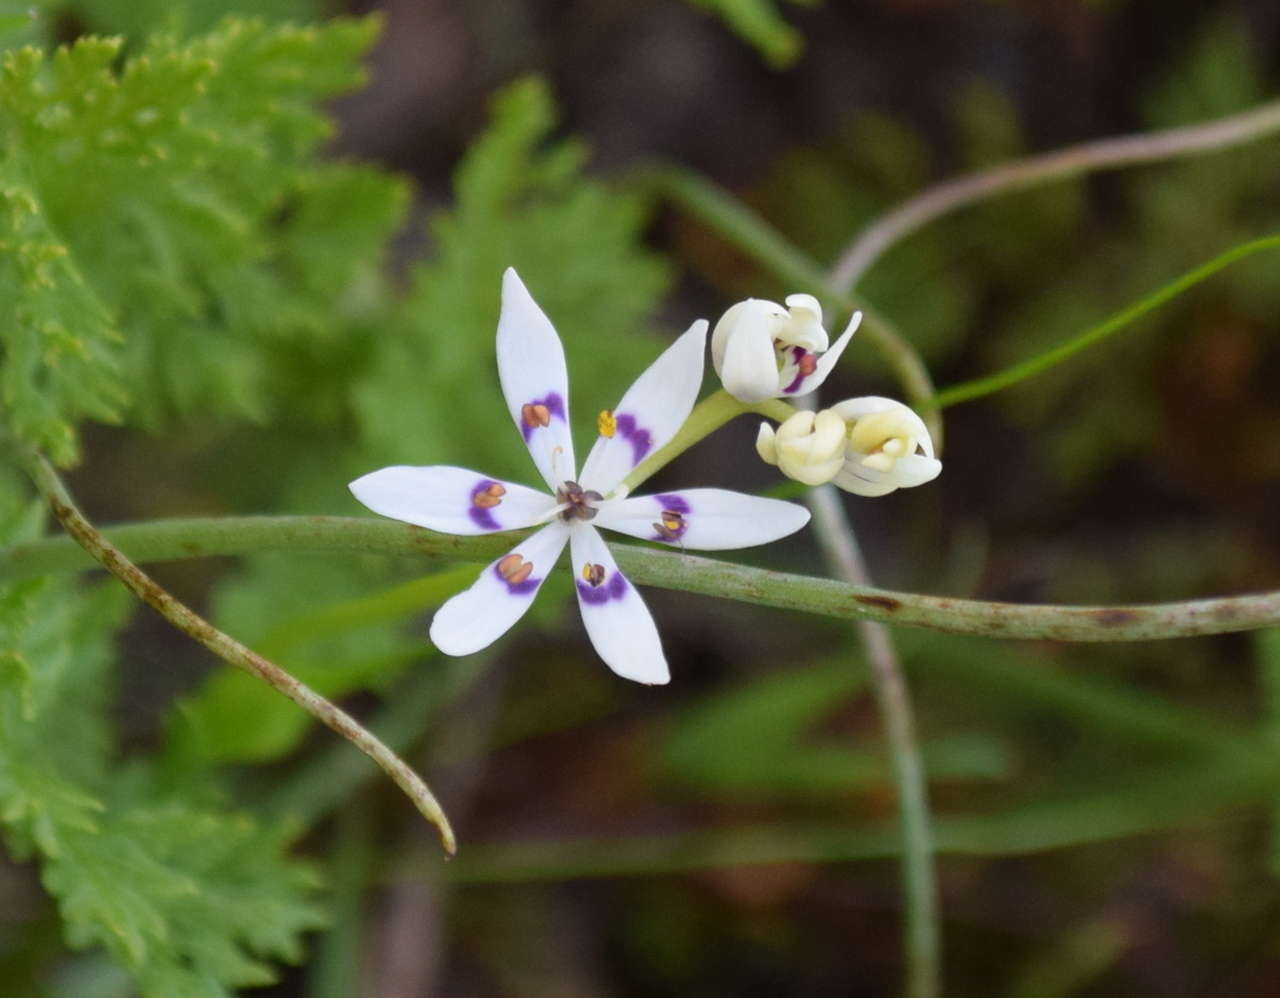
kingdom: Plantae
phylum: Tracheophyta
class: Liliopsida
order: Liliales
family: Colchicaceae
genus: Wurmbea
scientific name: Wurmbea dioica
